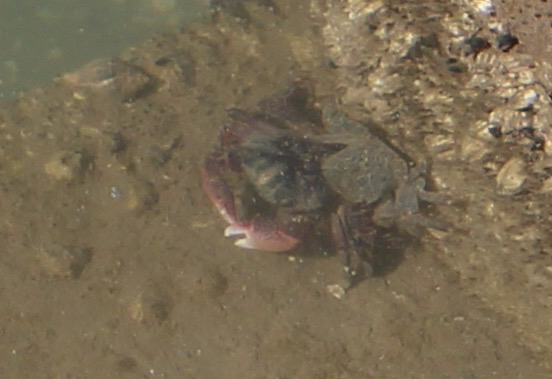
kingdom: Animalia
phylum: Arthropoda
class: Malacostraca
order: Decapoda
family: Grapsidae
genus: Pachygrapsus
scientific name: Pachygrapsus crassipes
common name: Striped shore crab
